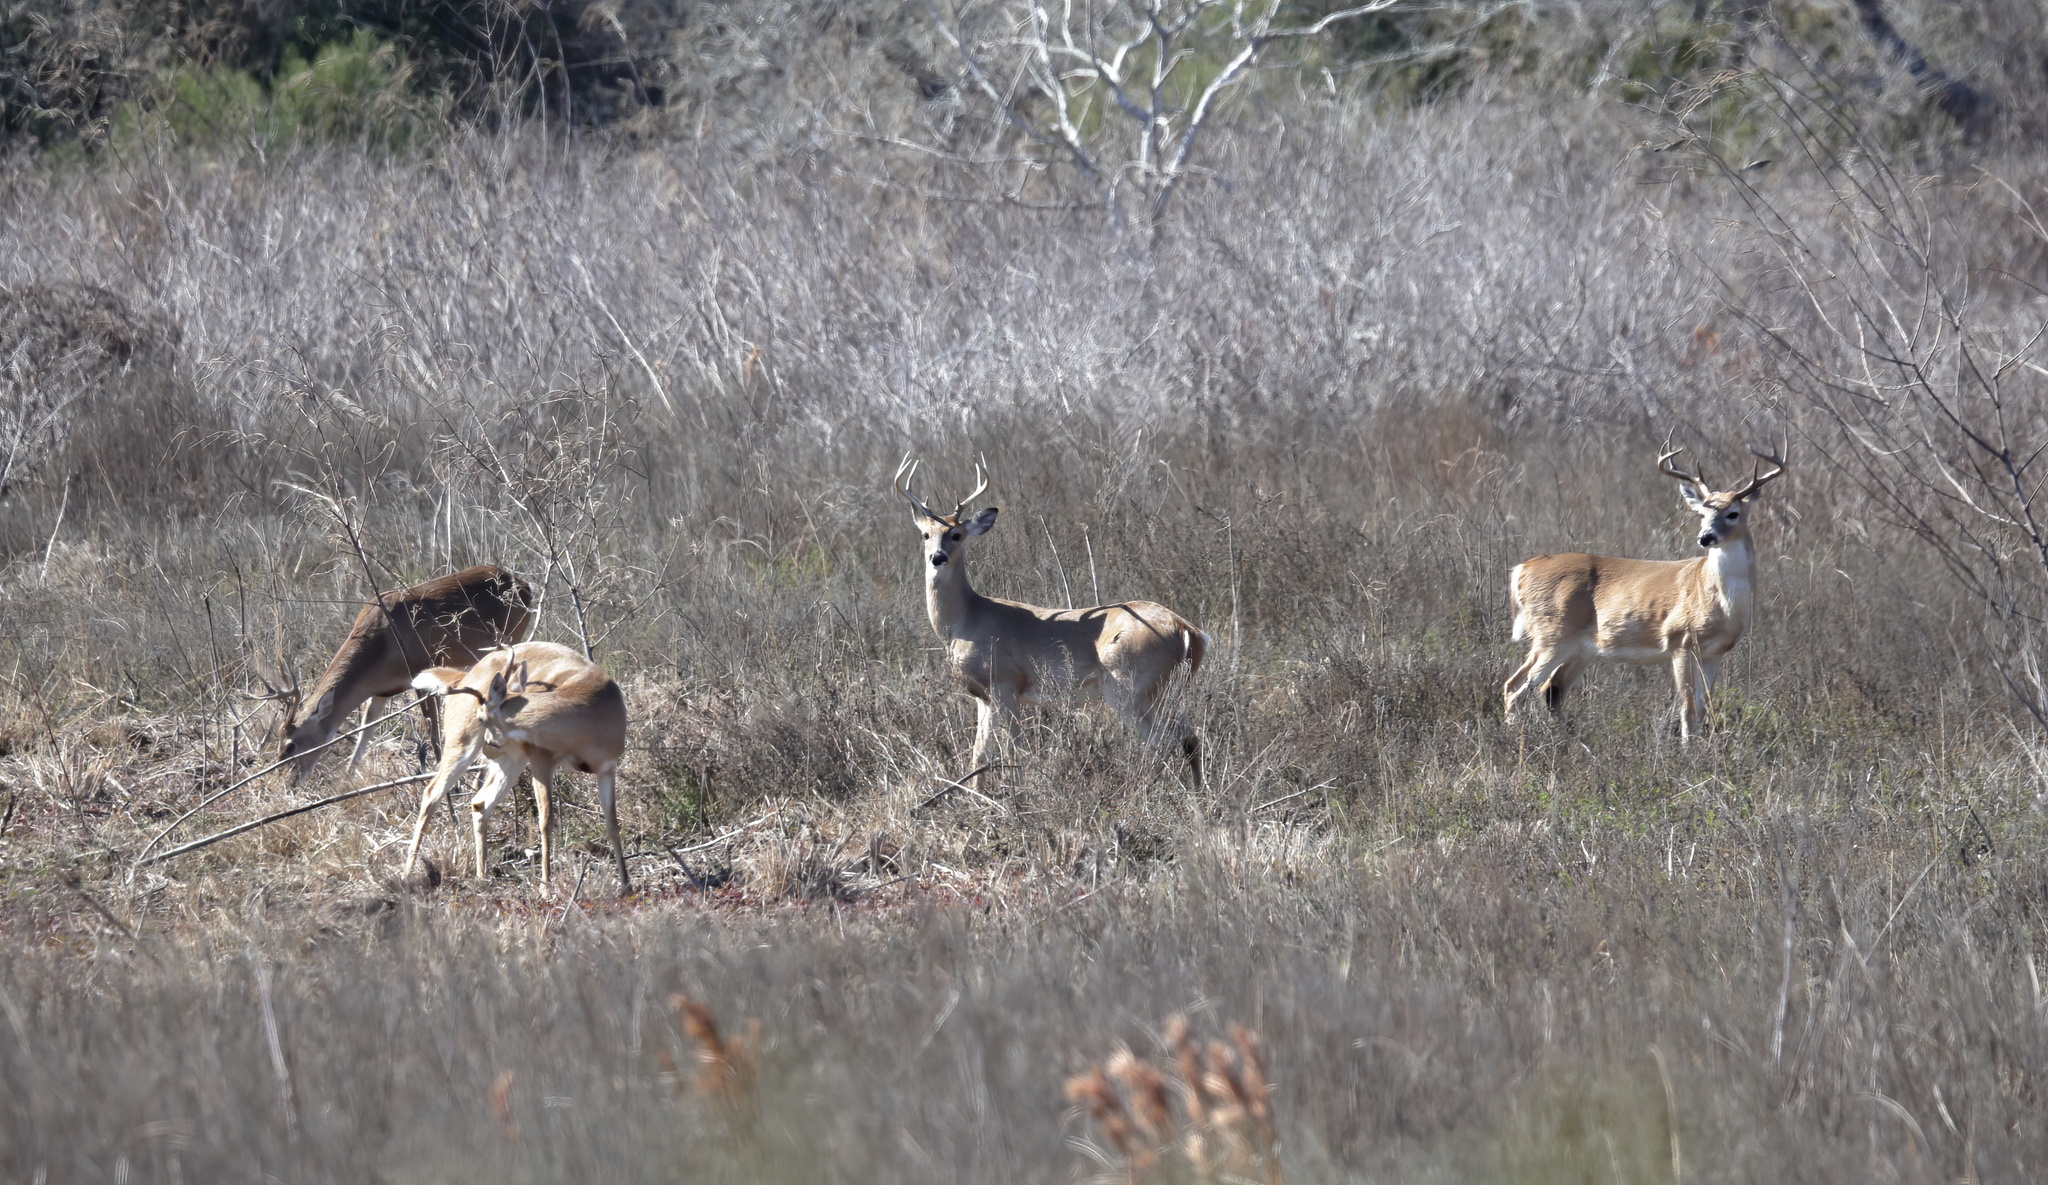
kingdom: Animalia
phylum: Chordata
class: Mammalia
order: Artiodactyla
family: Cervidae
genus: Odocoileus
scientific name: Odocoileus virginianus
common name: White-tailed deer
